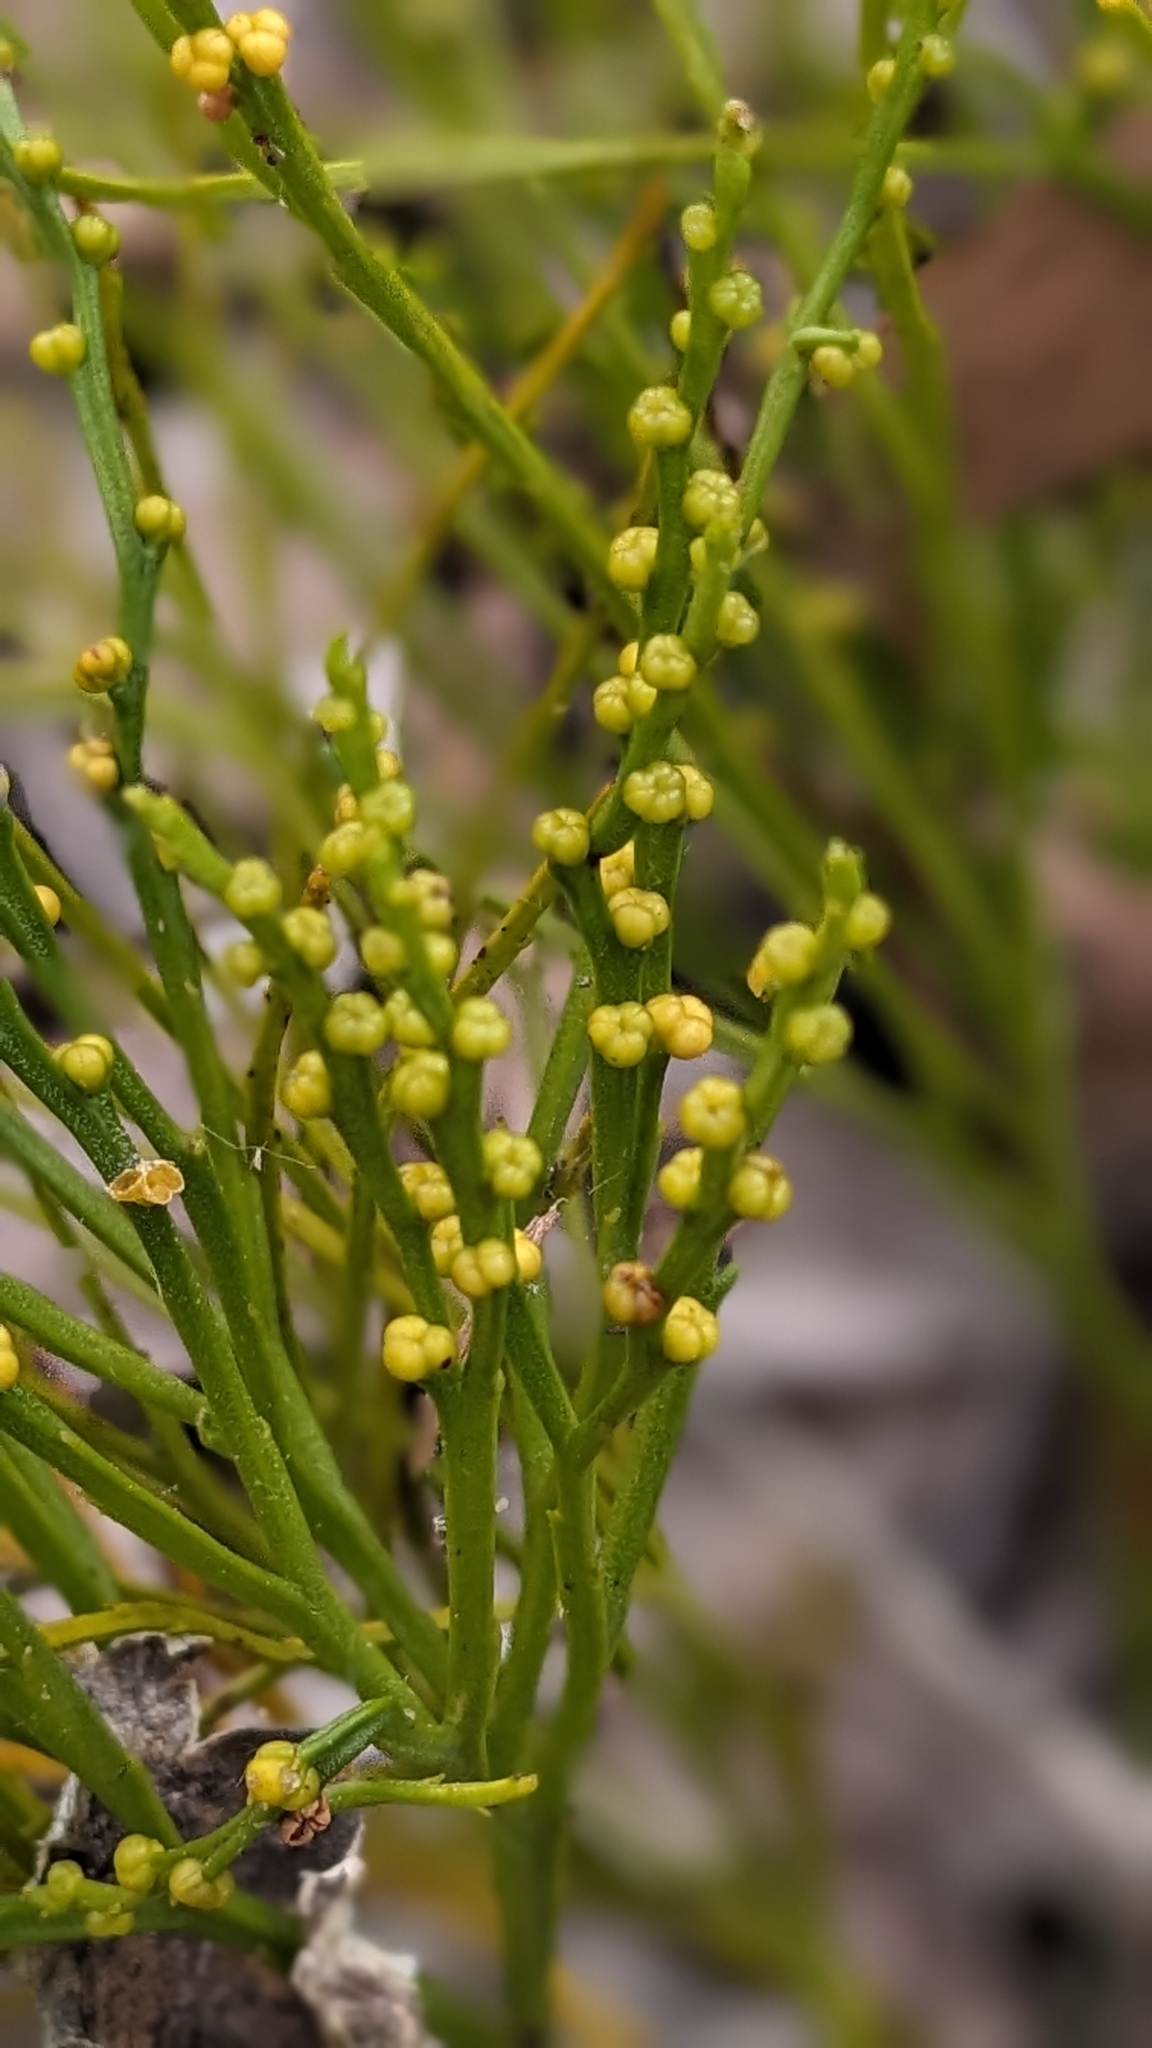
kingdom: Plantae
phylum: Tracheophyta
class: Polypodiopsida
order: Psilotales
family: Psilotaceae
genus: Psilotum
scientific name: Psilotum nudum
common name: Skeleton fork fern
